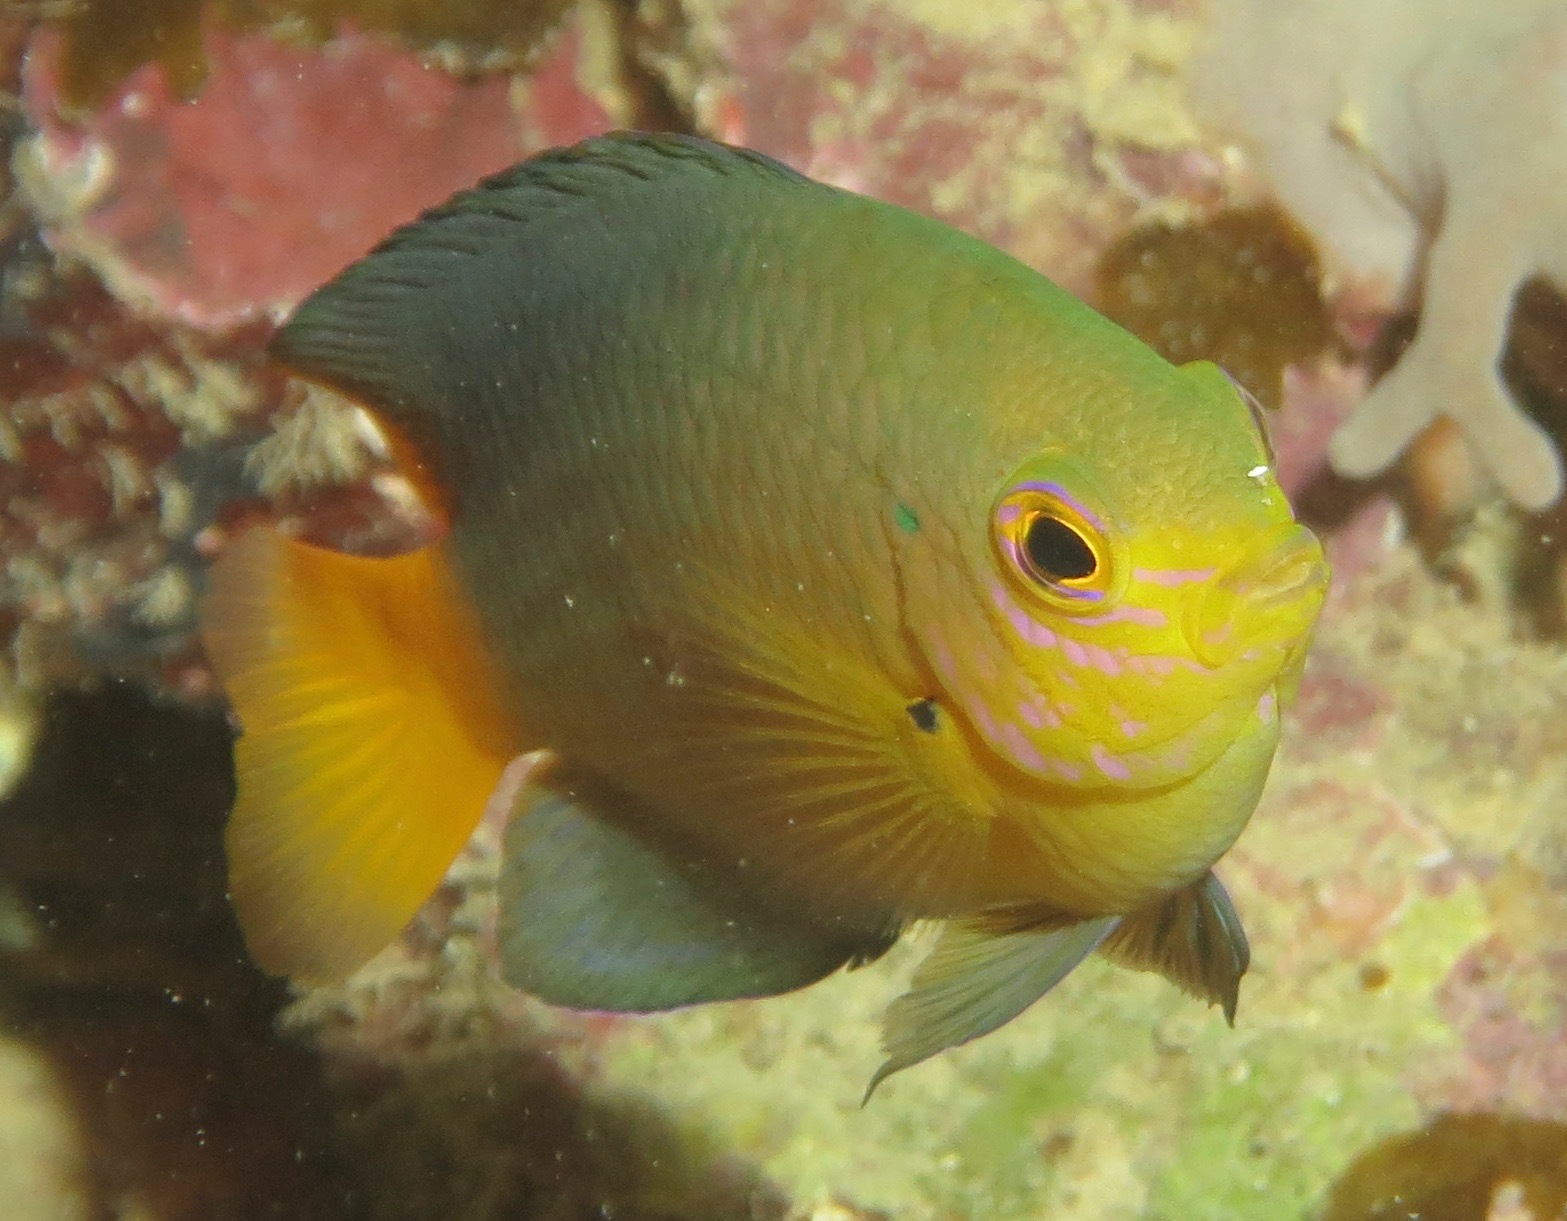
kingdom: Animalia
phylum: Chordata
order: Perciformes
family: Pomacentridae
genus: Pomacentrus
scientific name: Pomacentrus maafu
